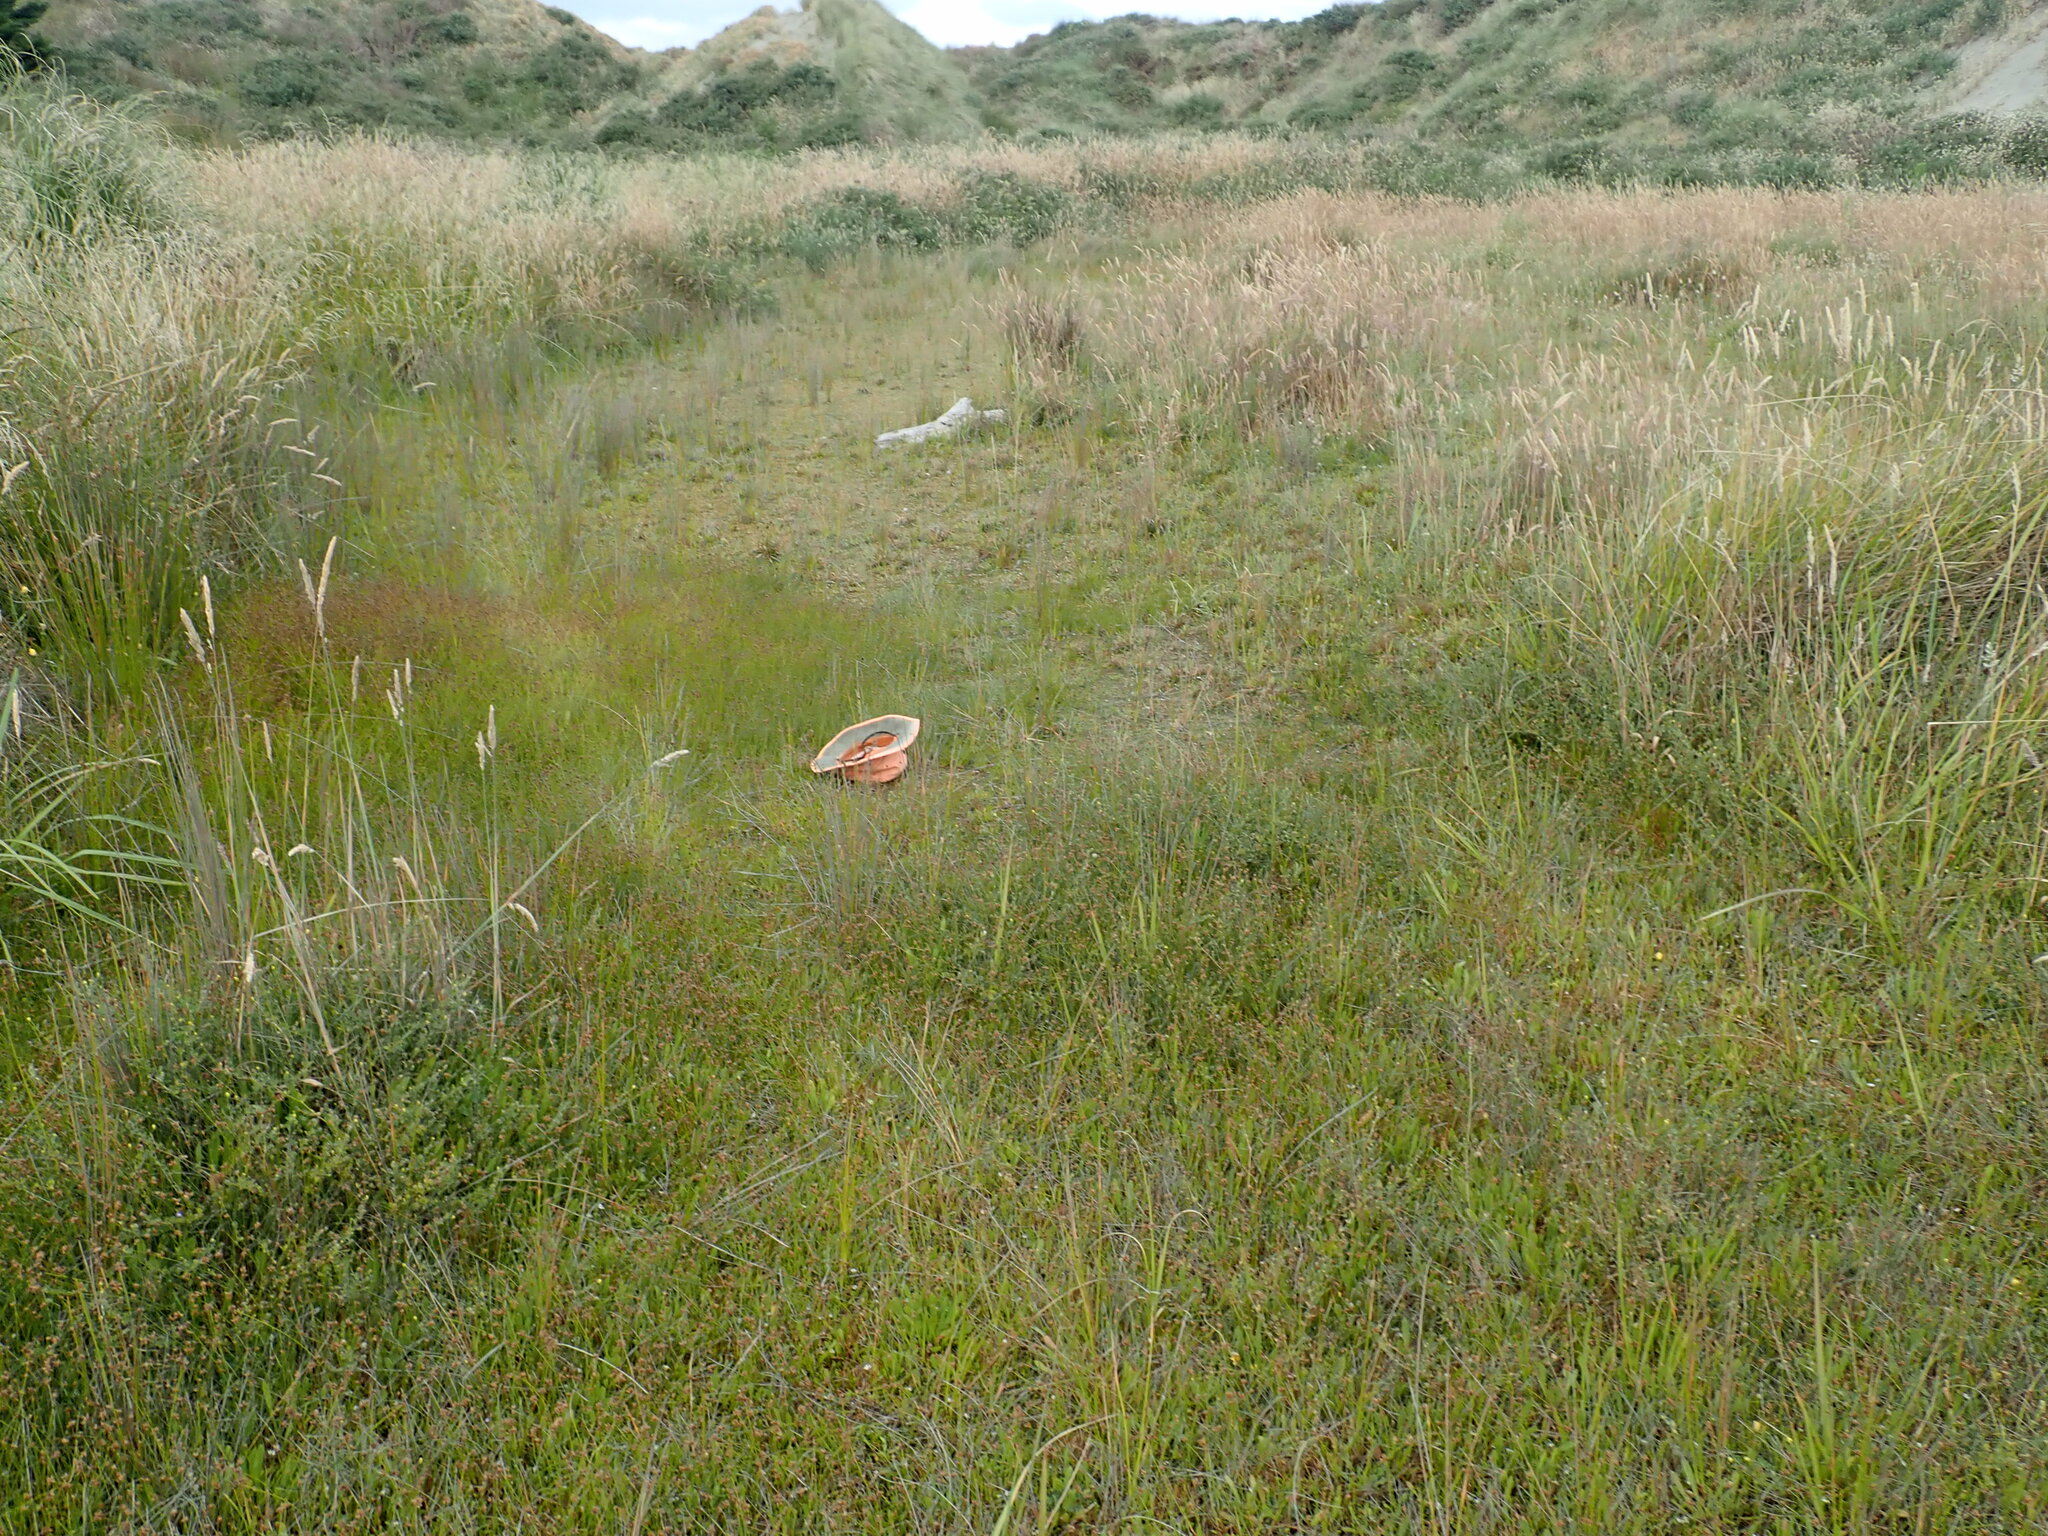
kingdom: Plantae
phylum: Tracheophyta
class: Magnoliopsida
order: Asterales
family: Campanulaceae
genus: Lobelia
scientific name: Lobelia anceps
